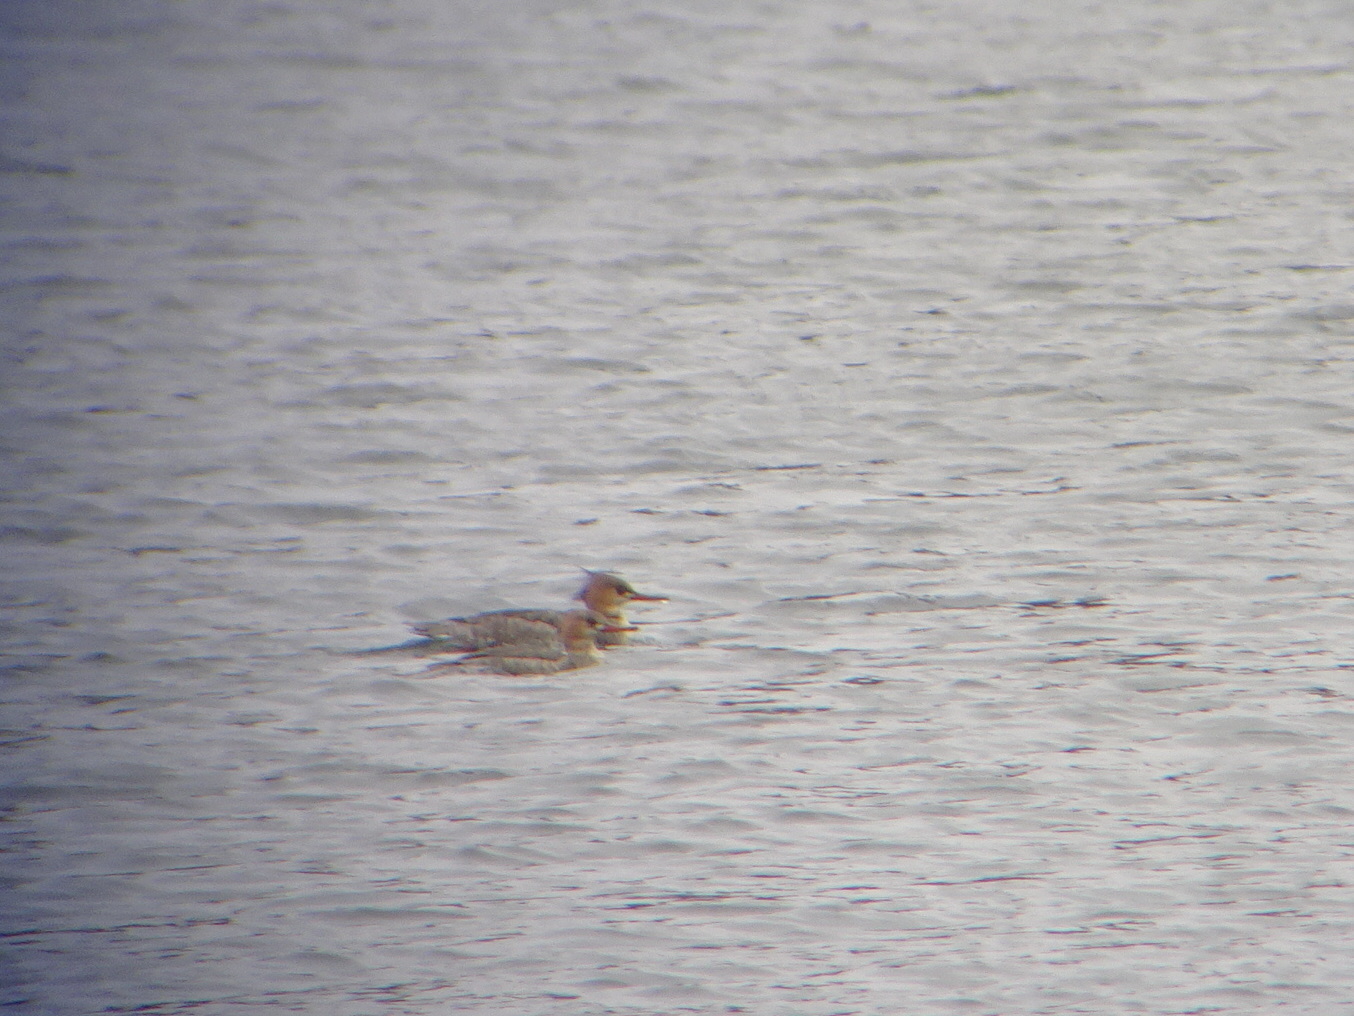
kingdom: Animalia
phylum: Chordata
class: Aves
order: Anseriformes
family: Anatidae
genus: Mergus
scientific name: Mergus serrator
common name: Red-breasted merganser
